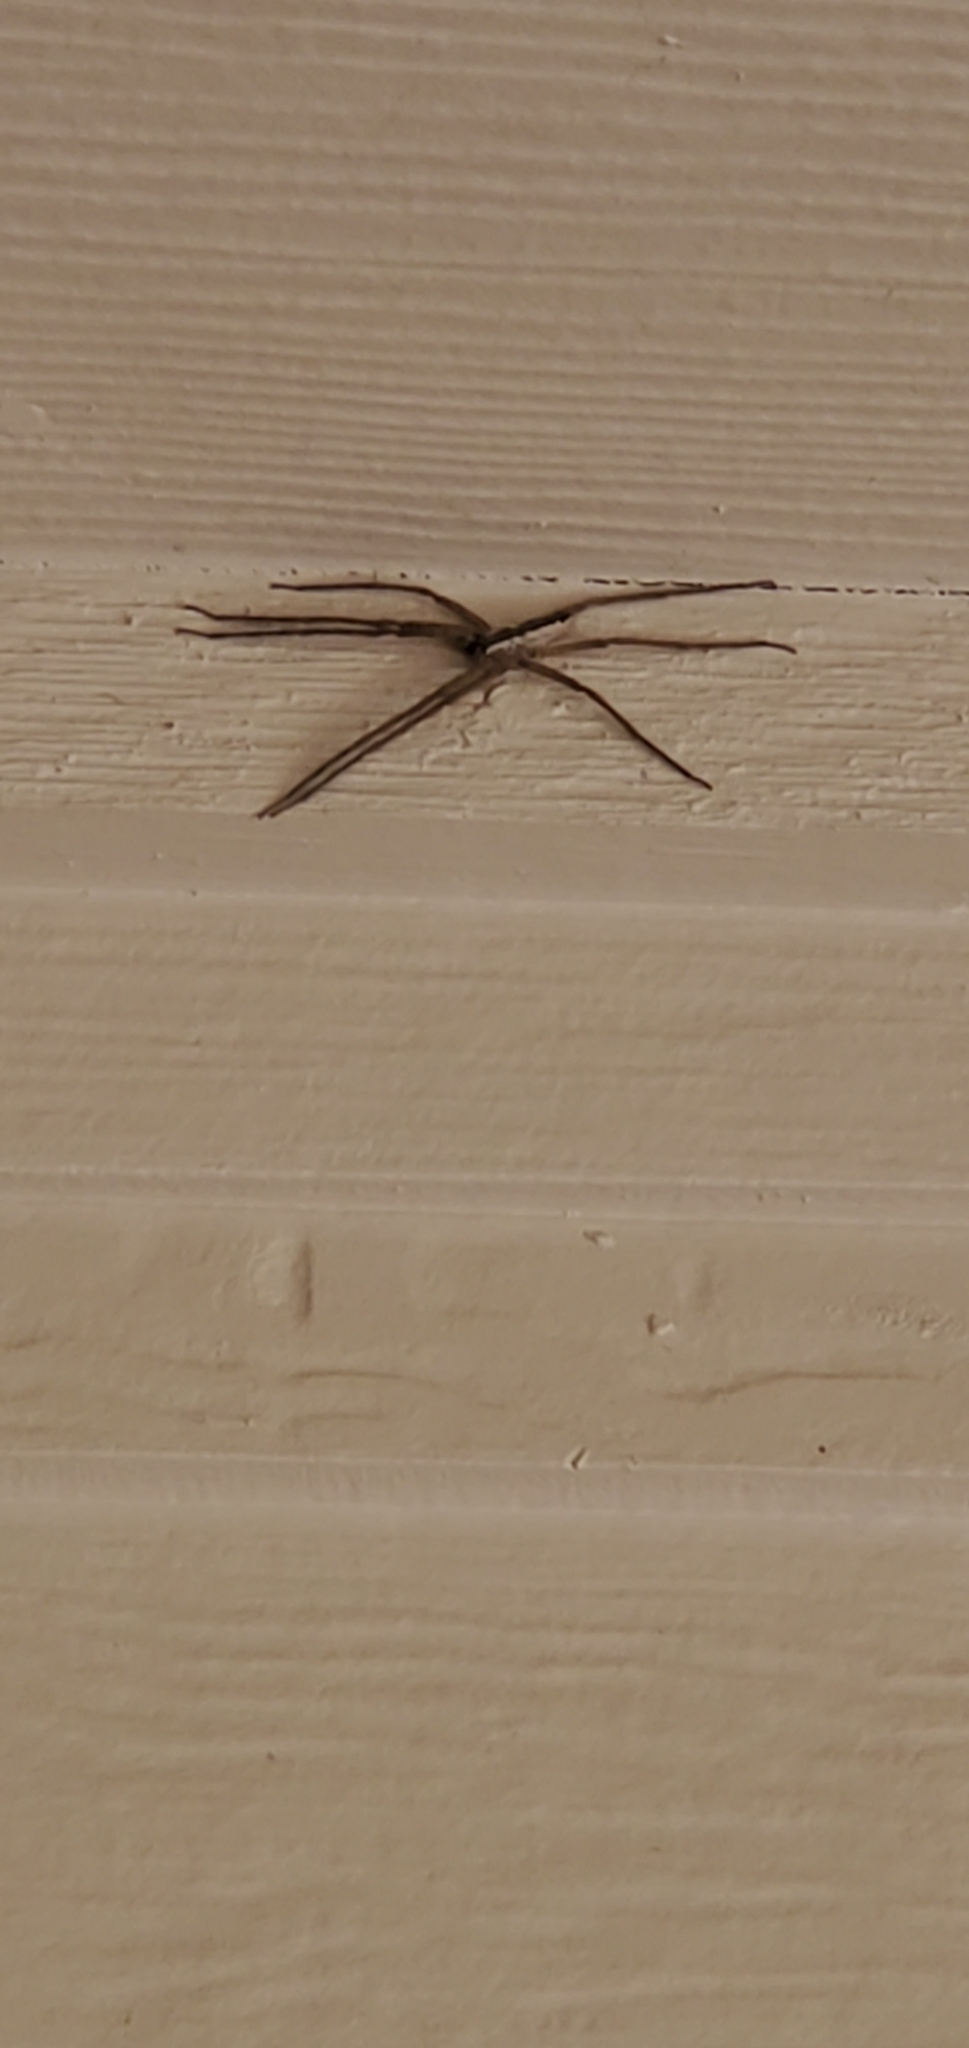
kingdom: Animalia
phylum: Arthropoda
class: Arachnida
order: Araneae
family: Pisauridae
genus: Pisaurina
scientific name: Pisaurina mira
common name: American nursery web spider
